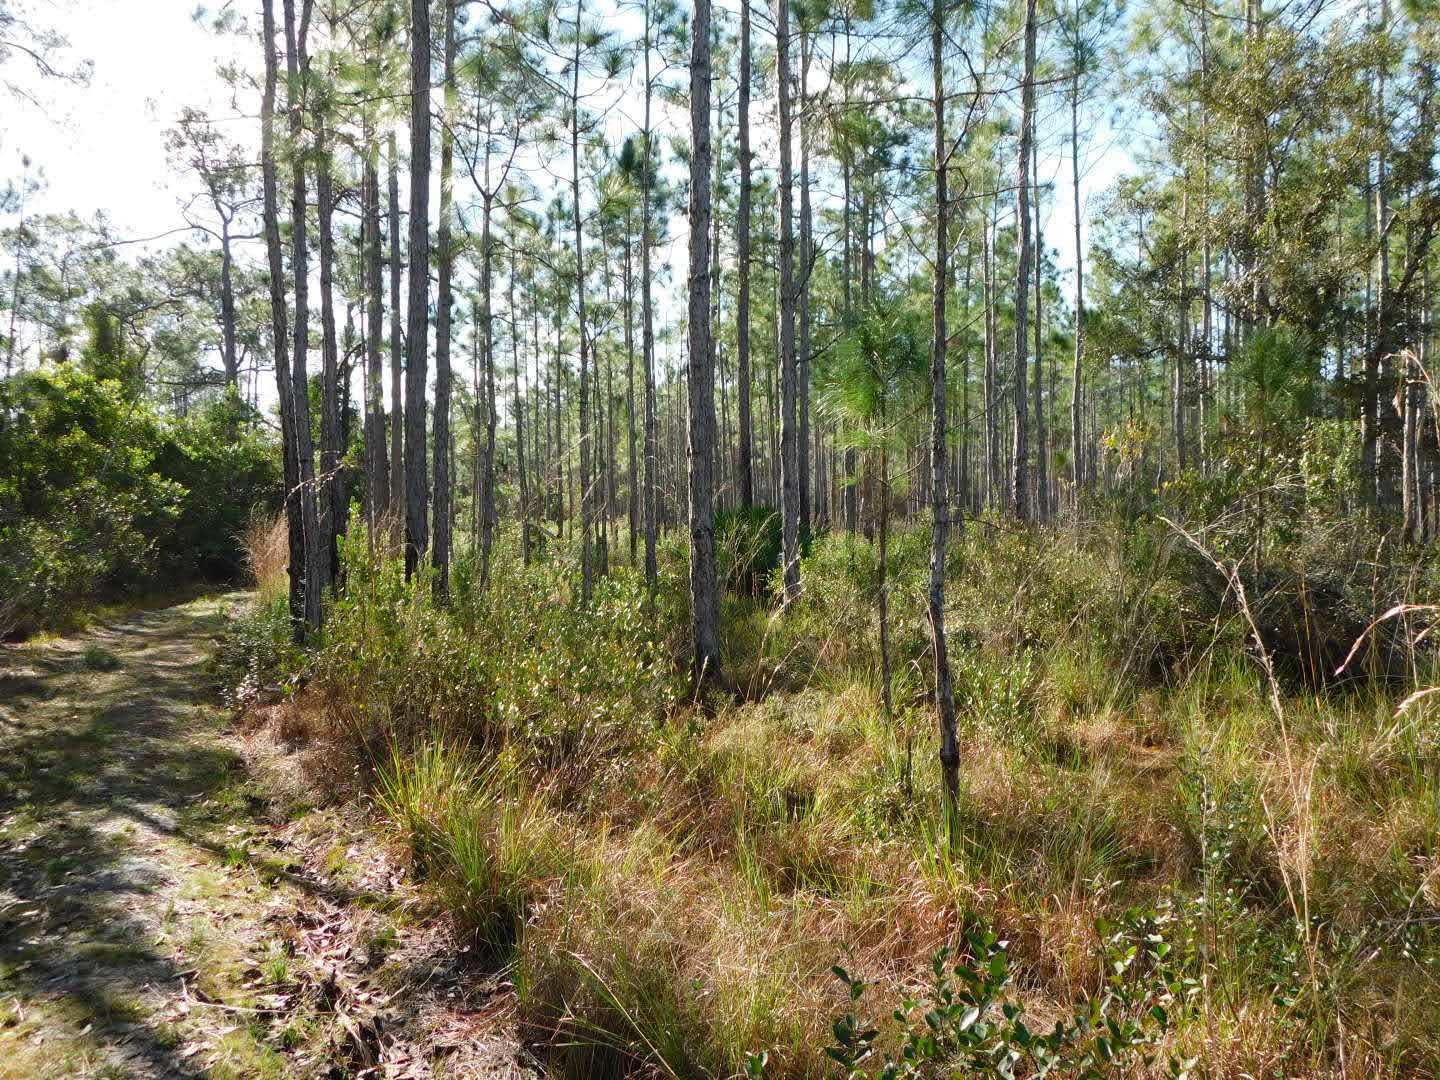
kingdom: Plantae
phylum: Tracheophyta
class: Pinopsida
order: Pinales
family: Pinaceae
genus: Pinus
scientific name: Pinus palustris
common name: Longleaf pine
